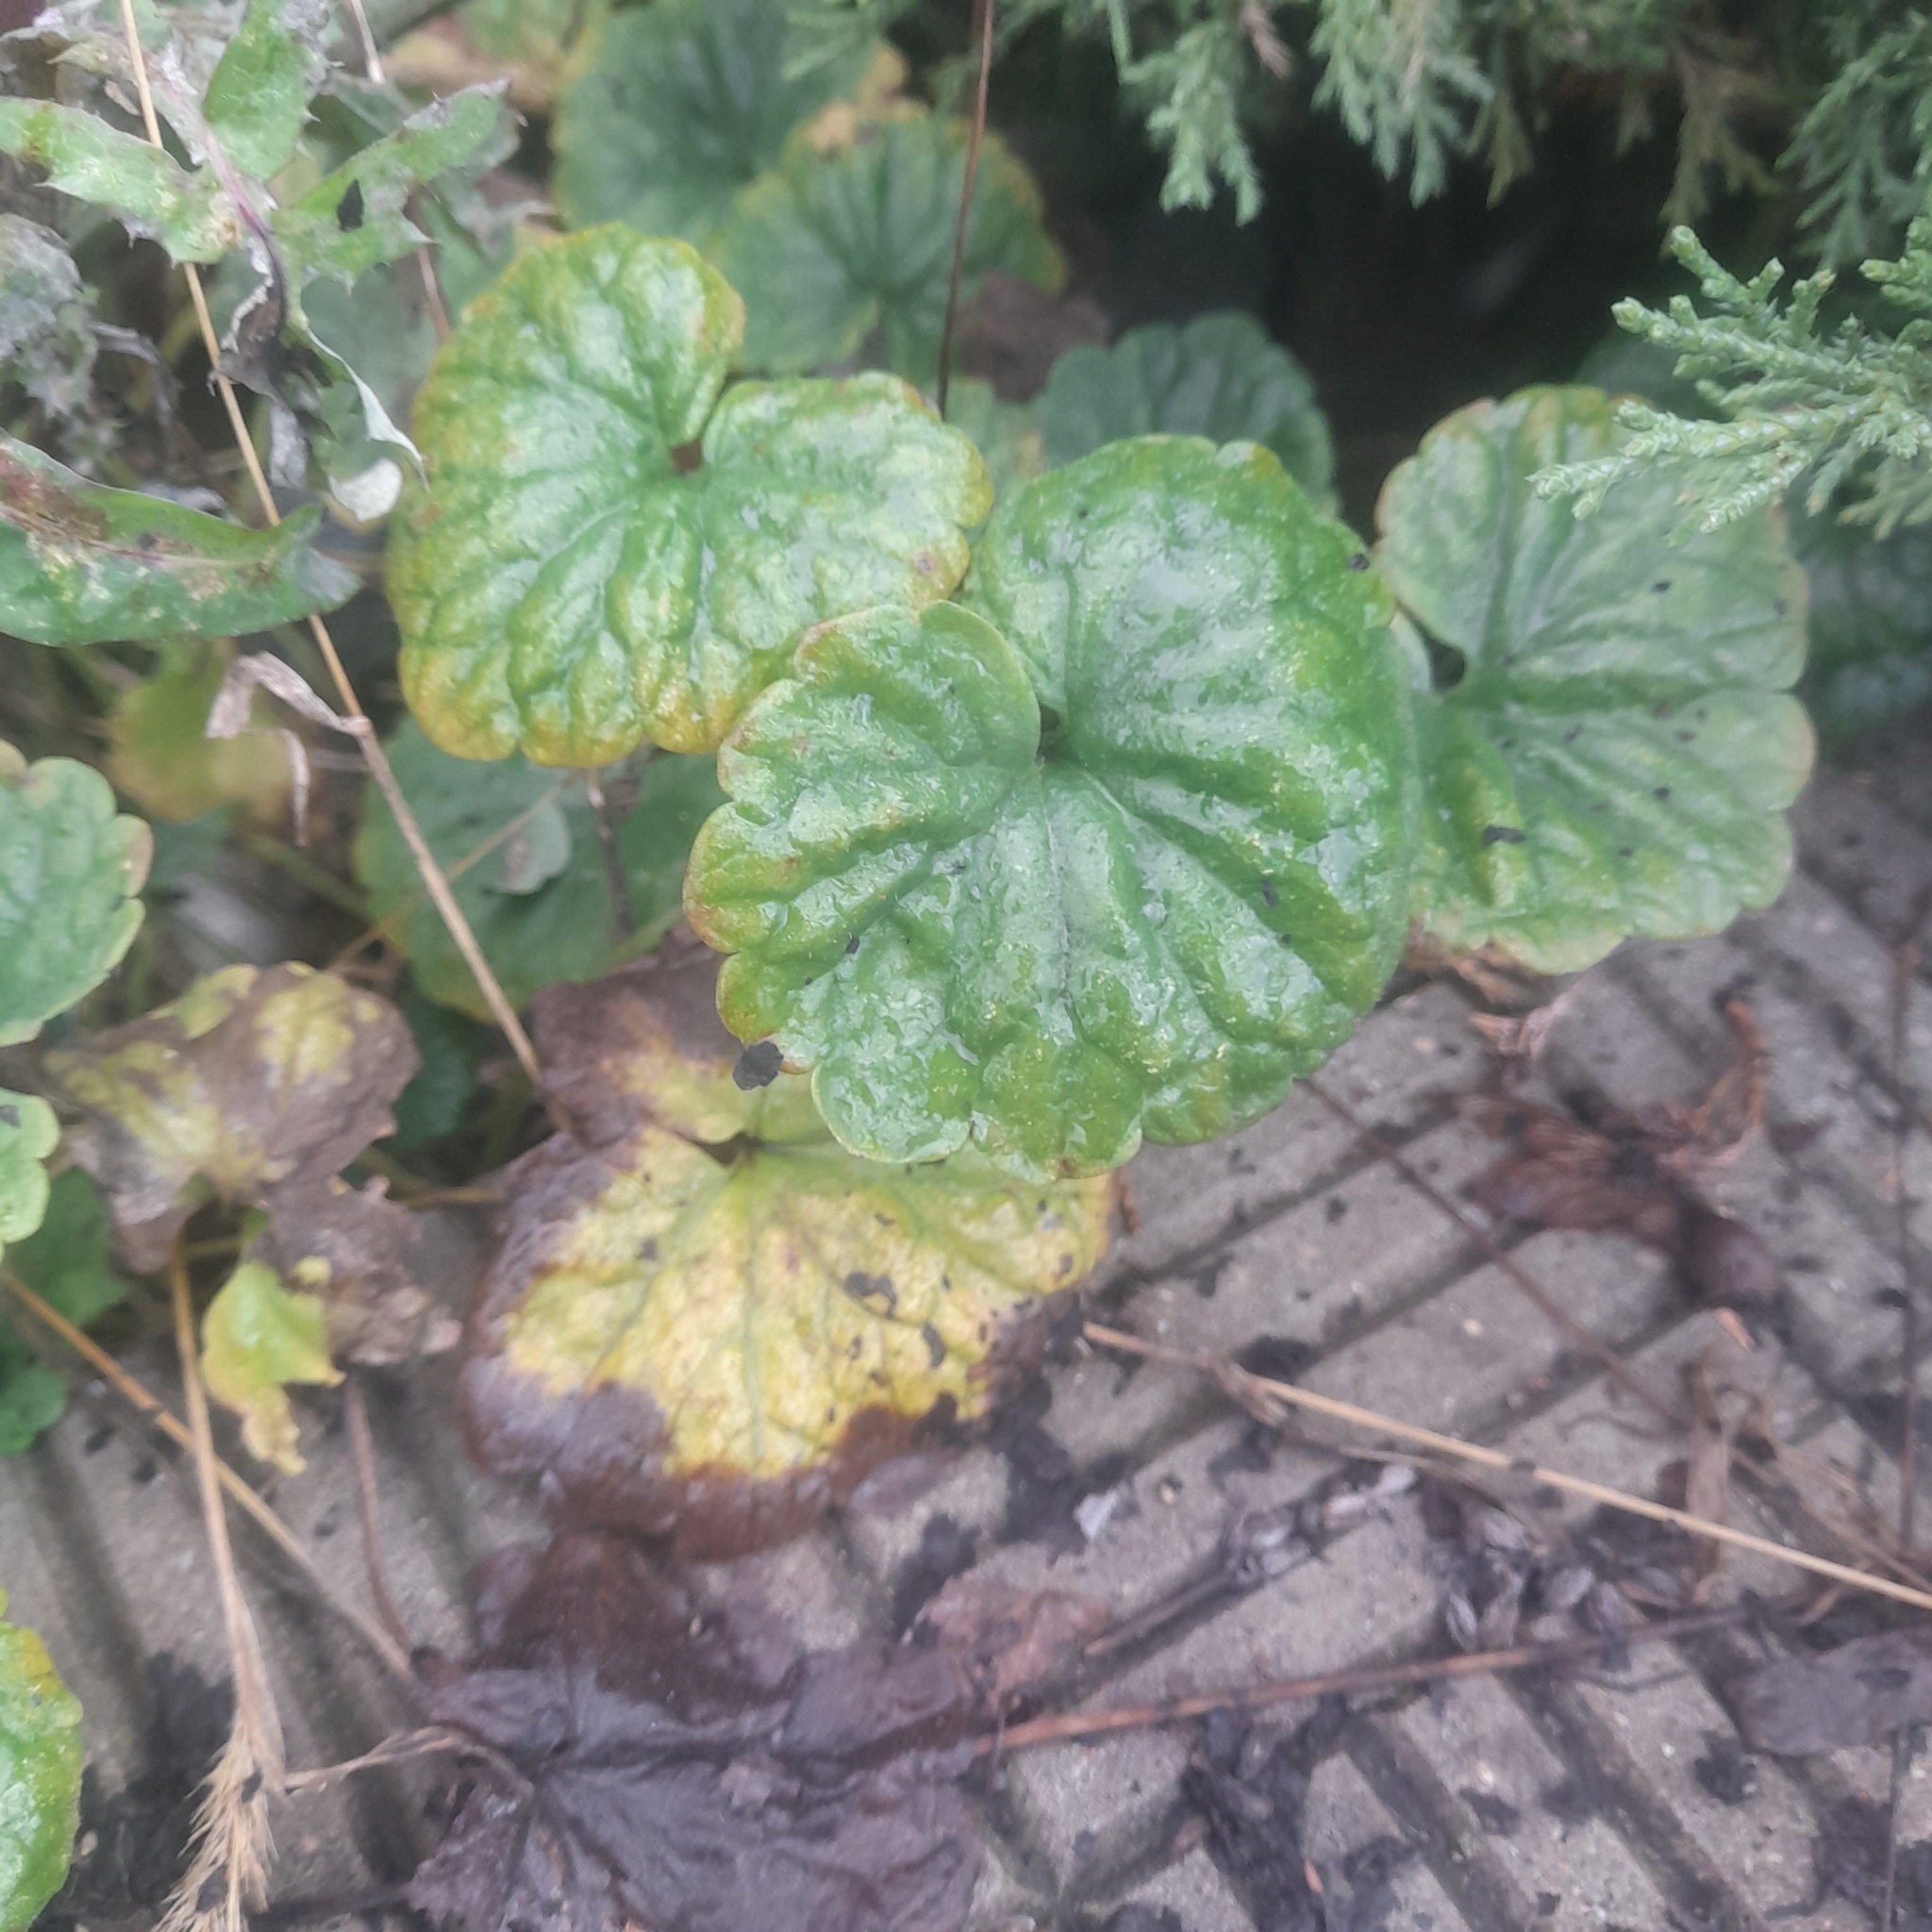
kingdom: Plantae
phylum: Tracheophyta
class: Magnoliopsida
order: Lamiales
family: Lamiaceae
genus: Glechoma
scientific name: Glechoma hederacea
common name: Ground ivy
